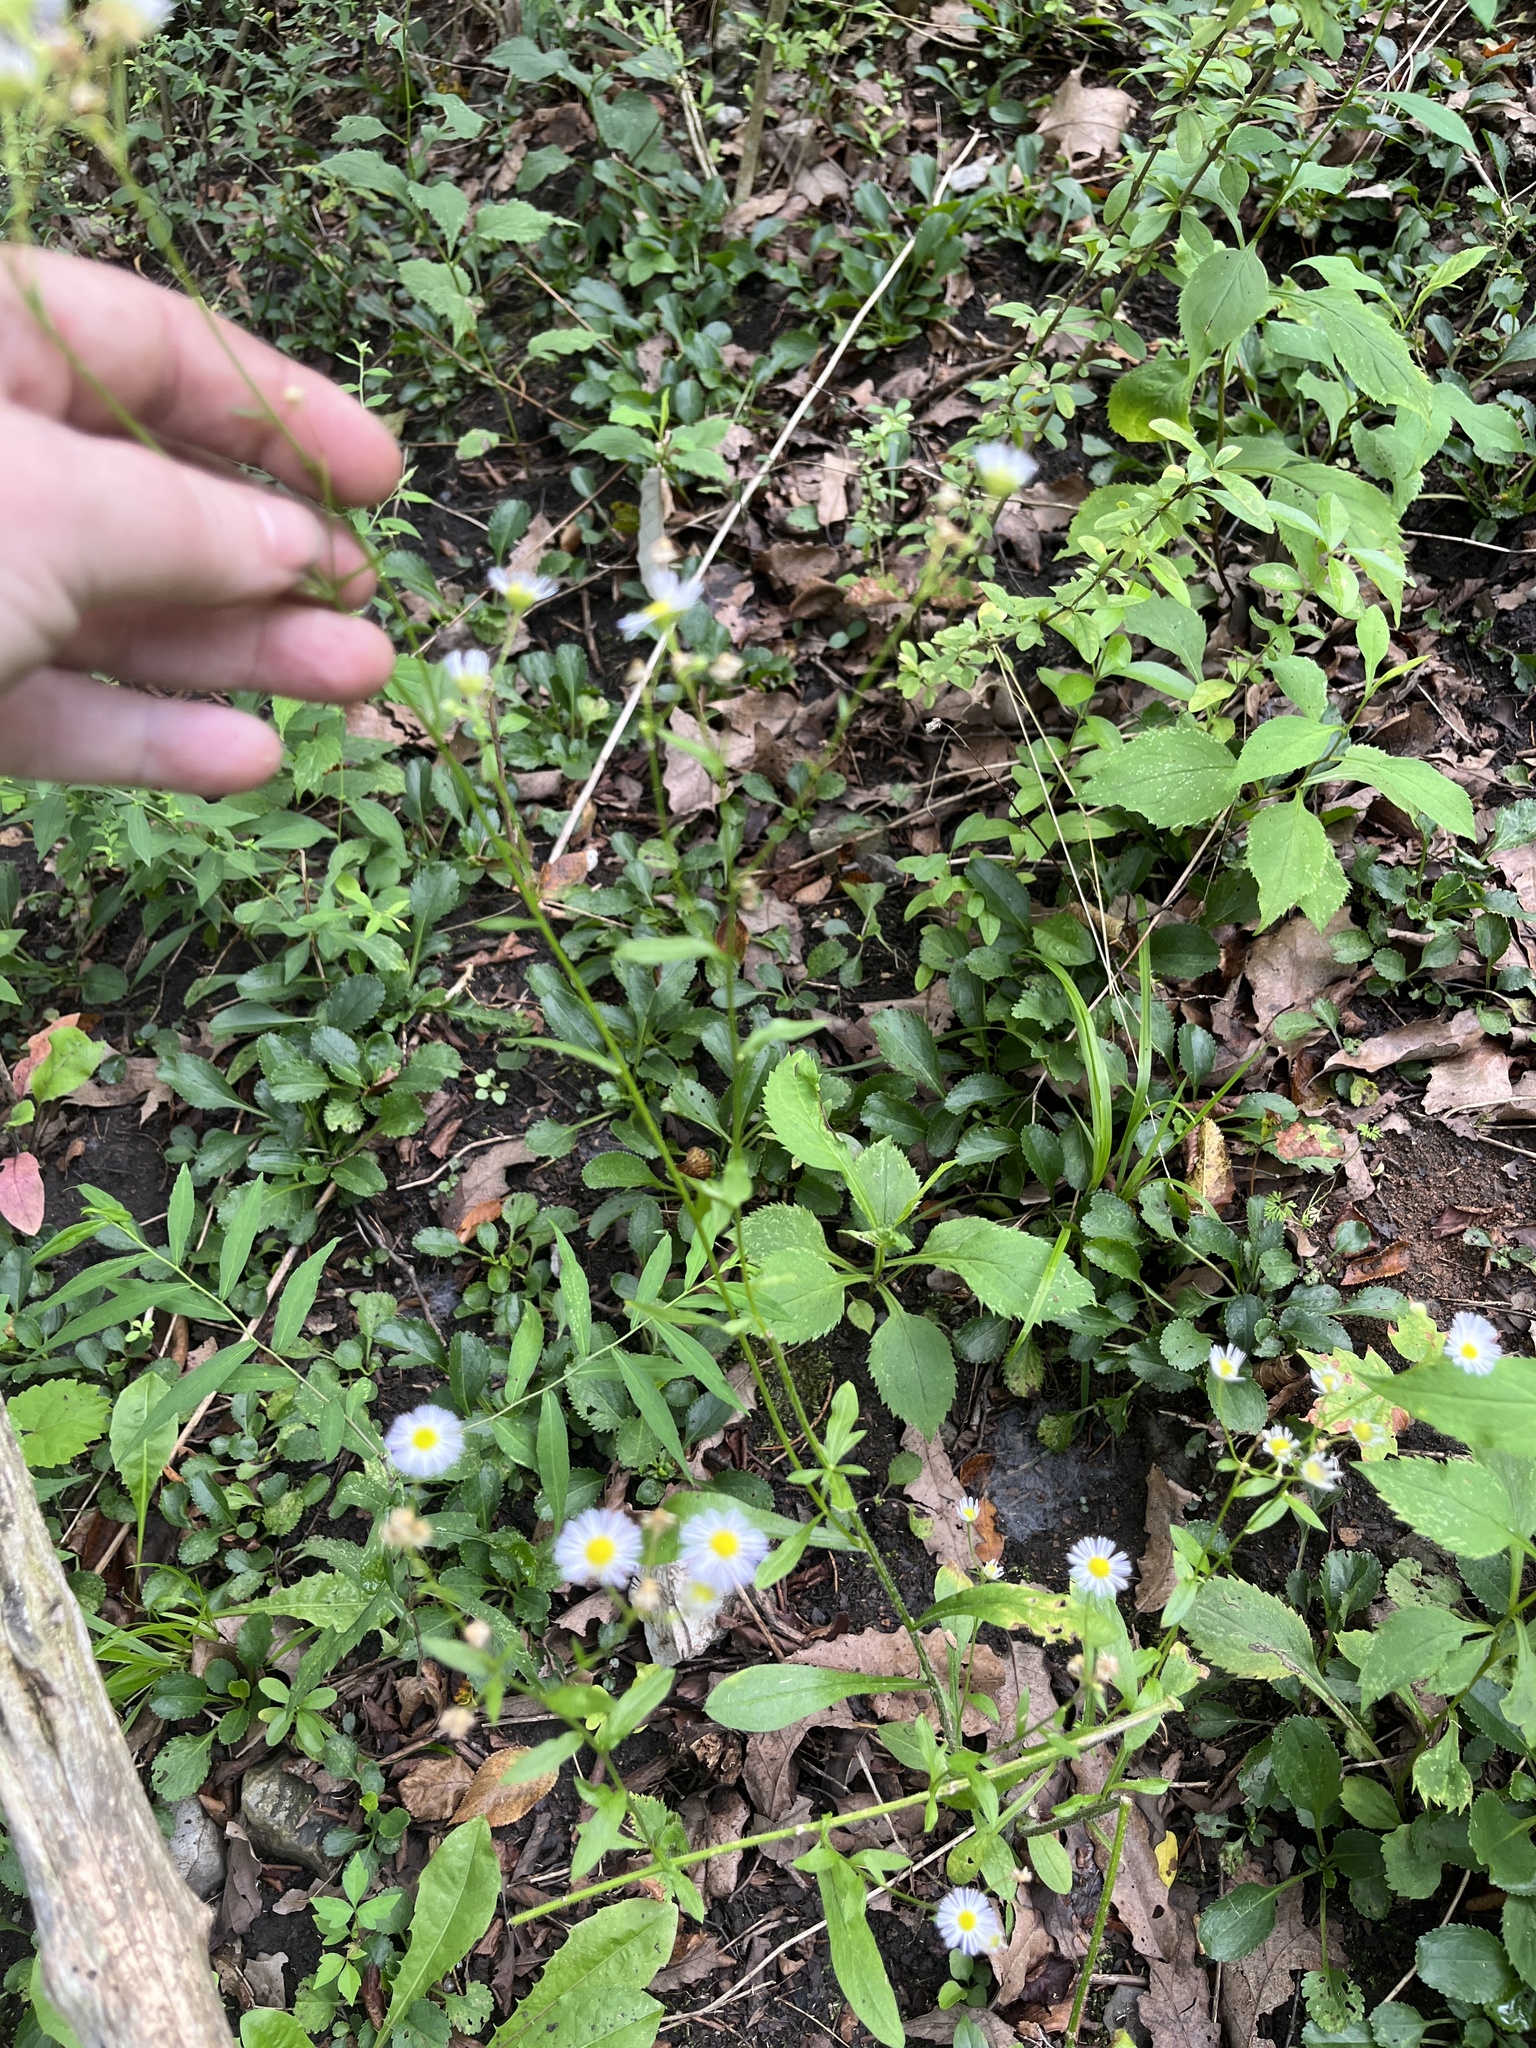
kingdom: Plantae
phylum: Tracheophyta
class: Magnoliopsida
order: Asterales
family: Asteraceae
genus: Erigeron
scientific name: Erigeron strigosus
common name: Common eastern fleabane
